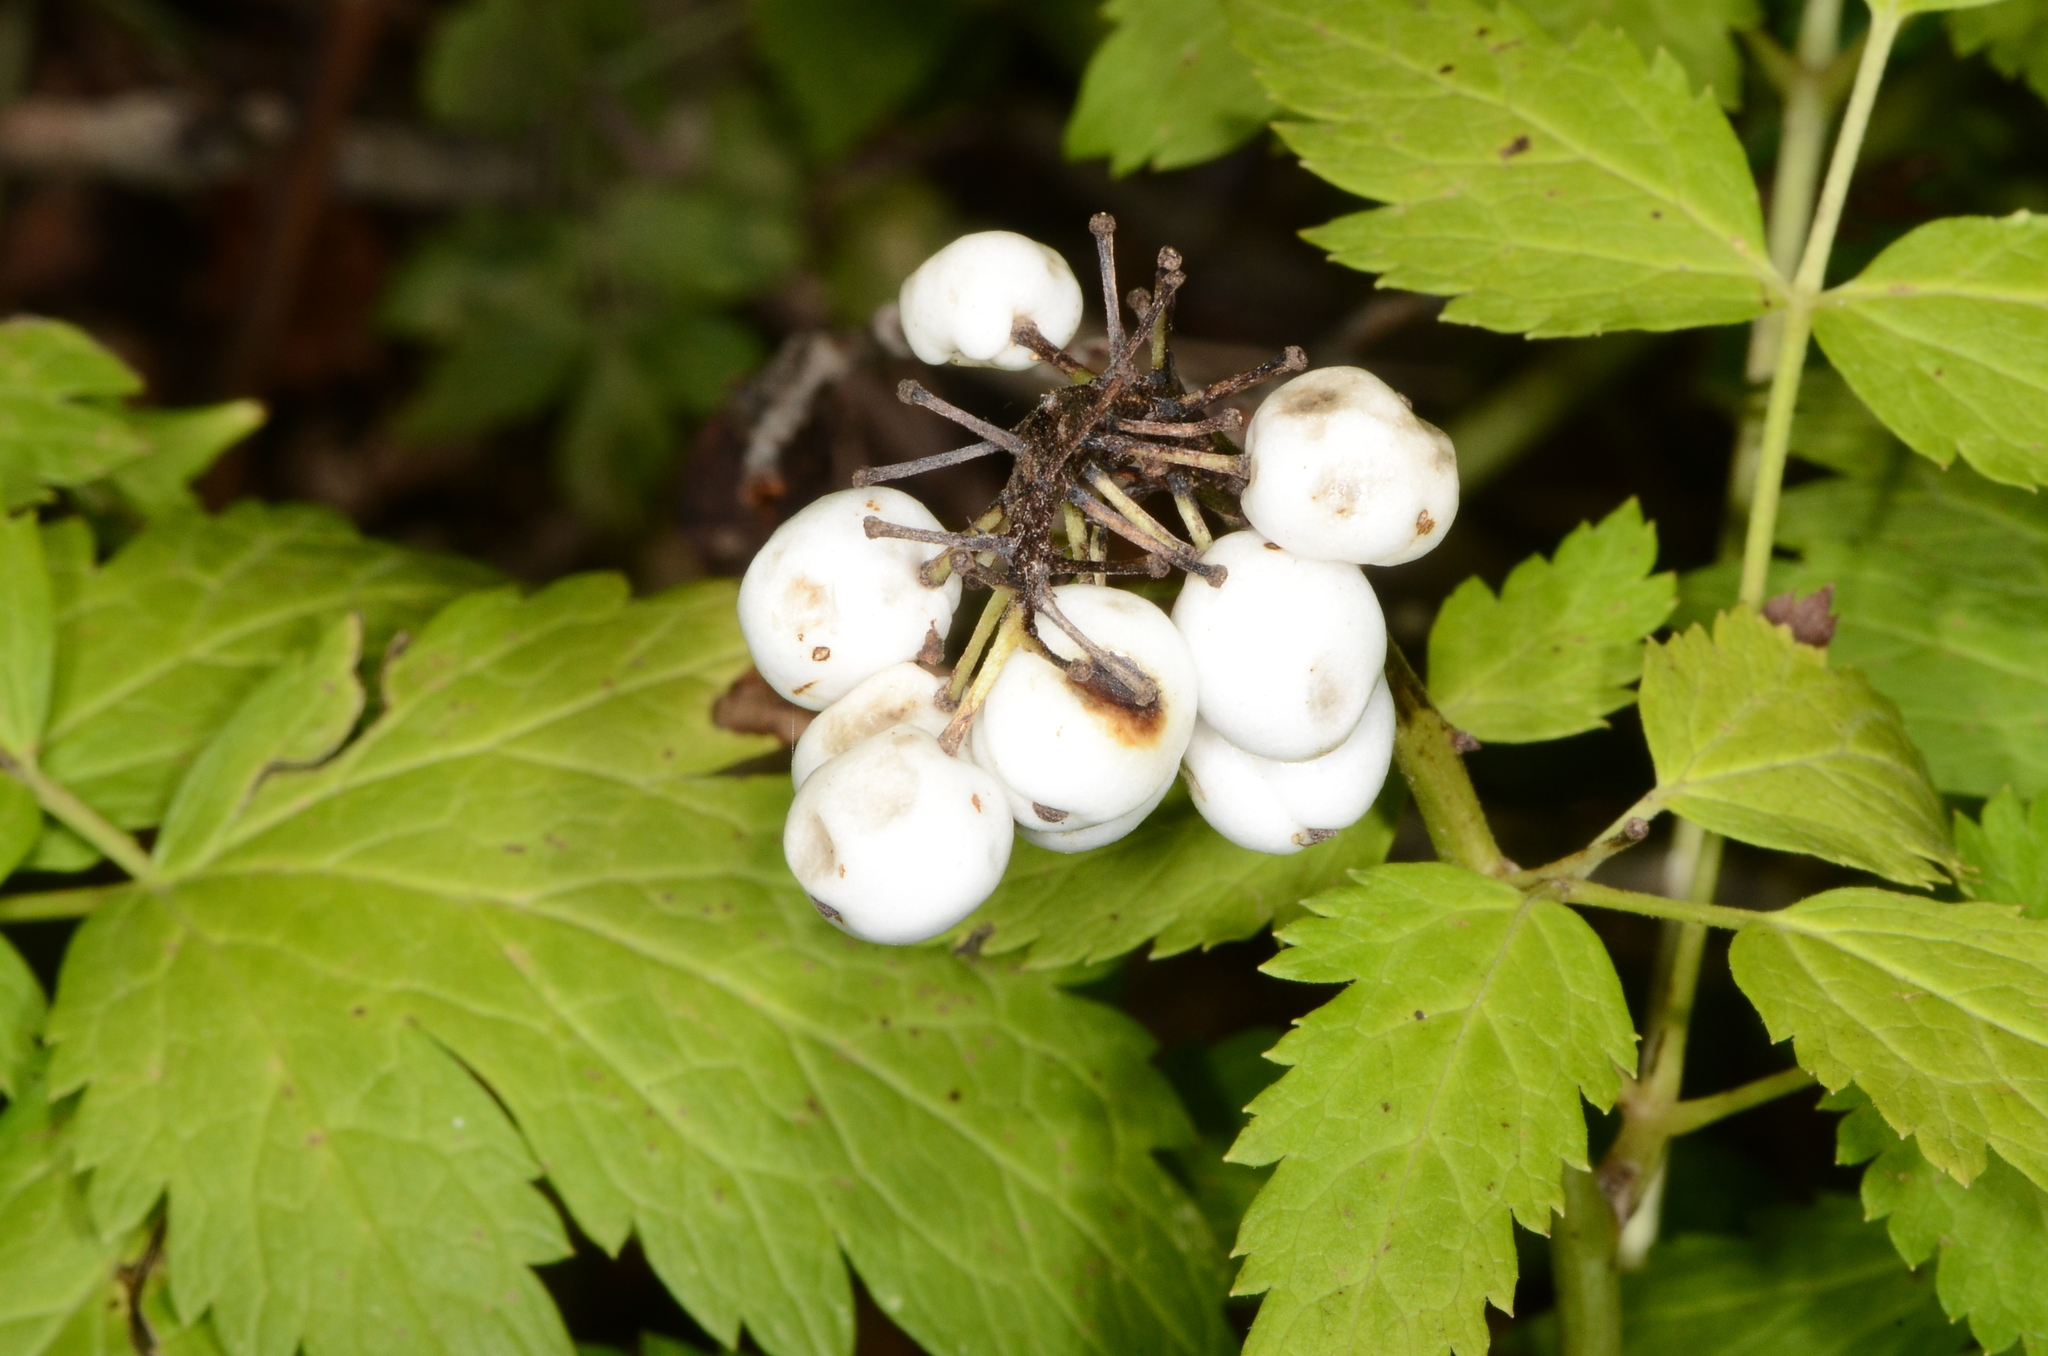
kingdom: Plantae
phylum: Tracheophyta
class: Magnoliopsida
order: Ranunculales
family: Ranunculaceae
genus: Actaea
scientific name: Actaea rubra
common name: Red baneberry
